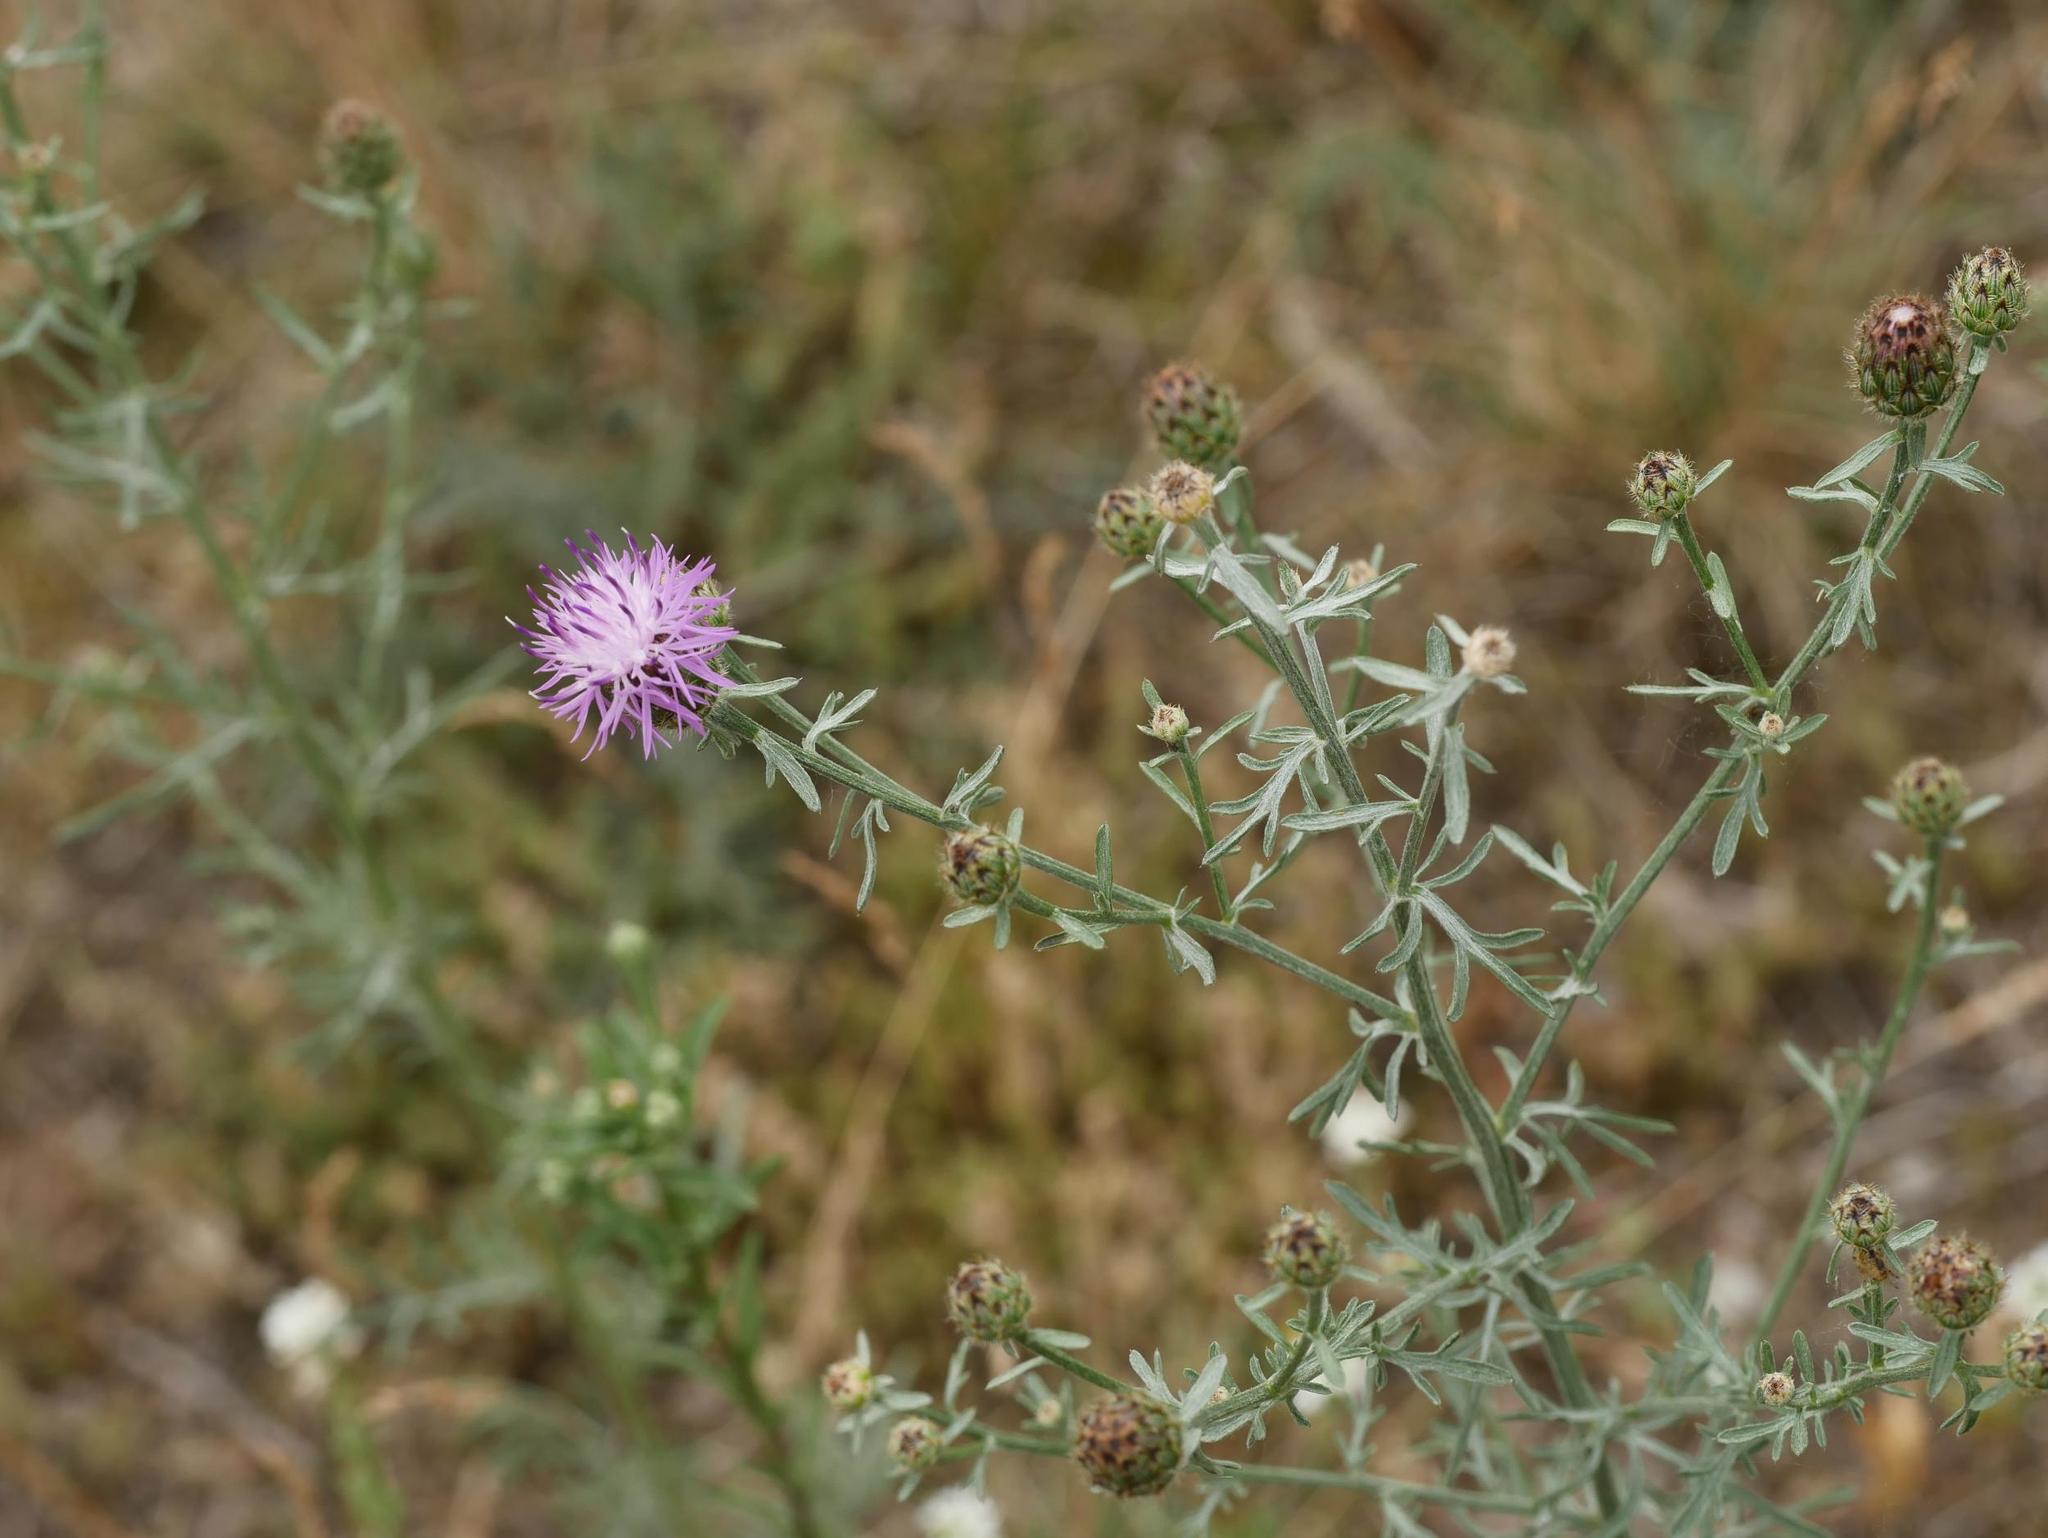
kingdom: Plantae
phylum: Tracheophyta
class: Magnoliopsida
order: Asterales
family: Asteraceae
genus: Centaurea
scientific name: Centaurea stoebe
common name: Spotted knapweed
